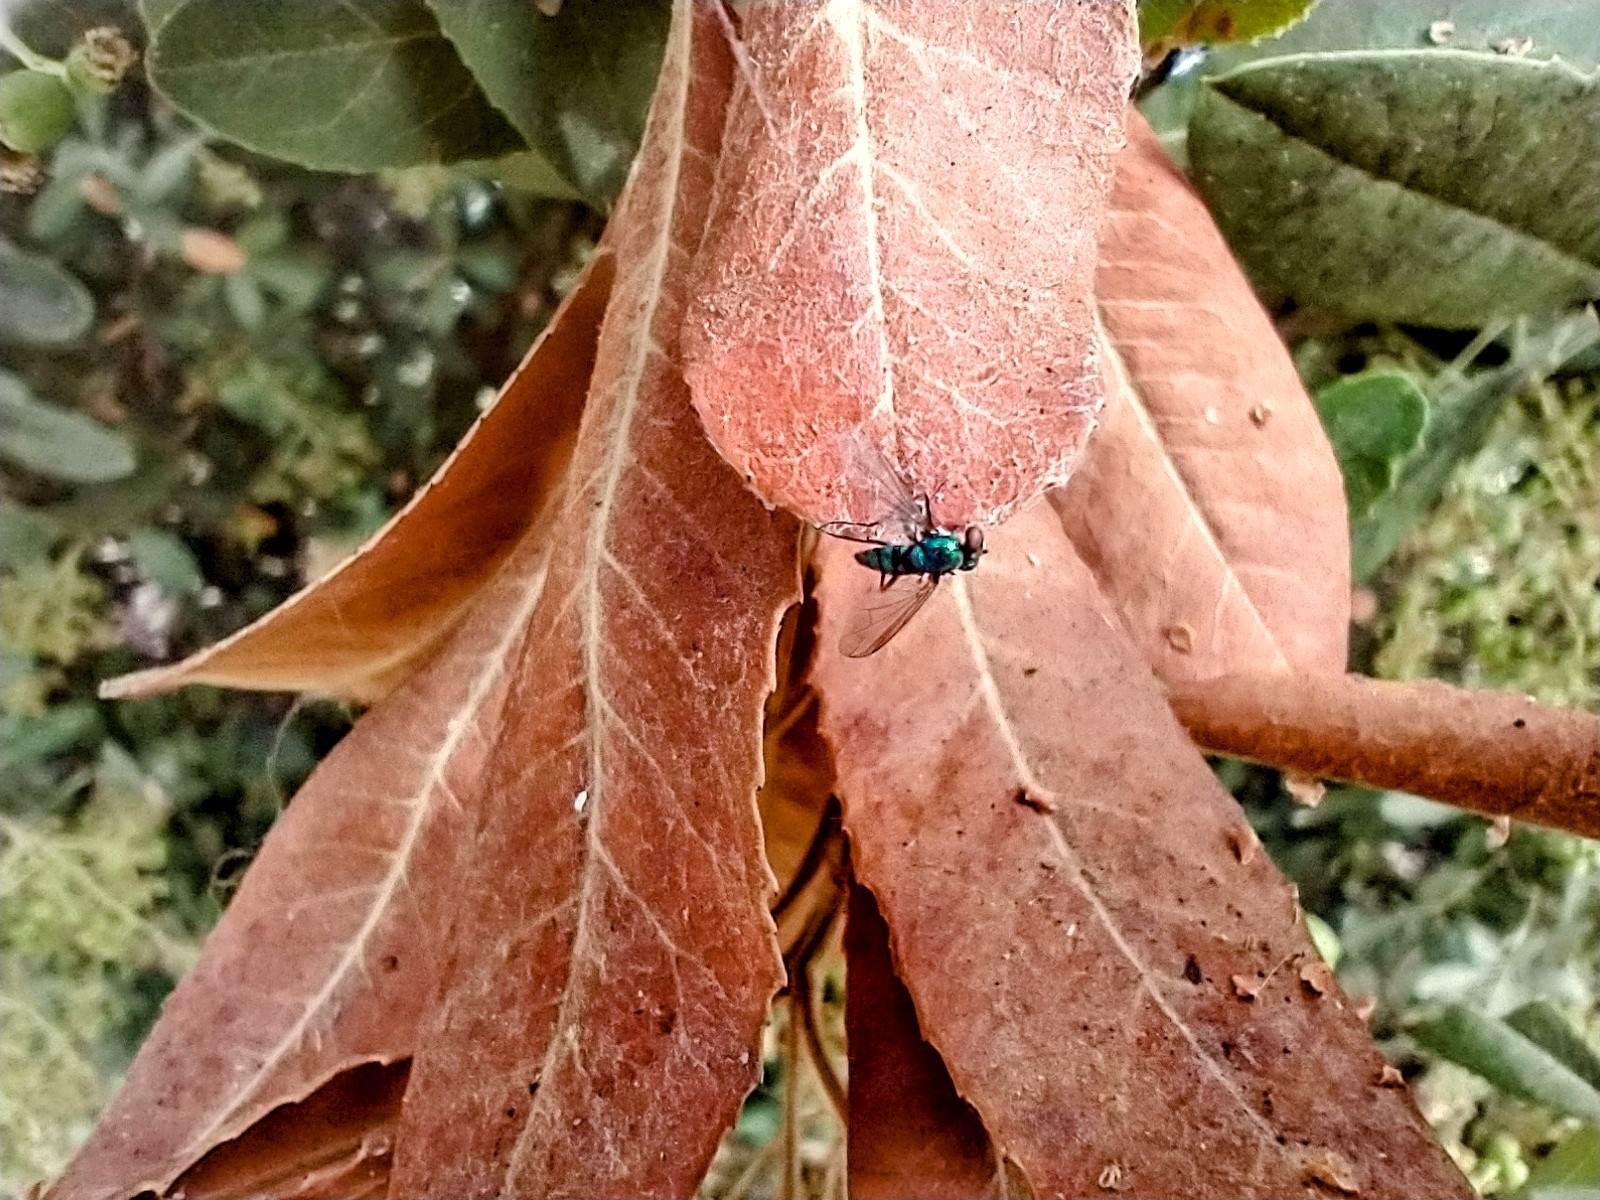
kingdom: Animalia
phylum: Arthropoda
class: Insecta
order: Diptera
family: Dolichopodidae
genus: Condylostylus
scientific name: Condylostylus longicornis
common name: Long-legged fly
